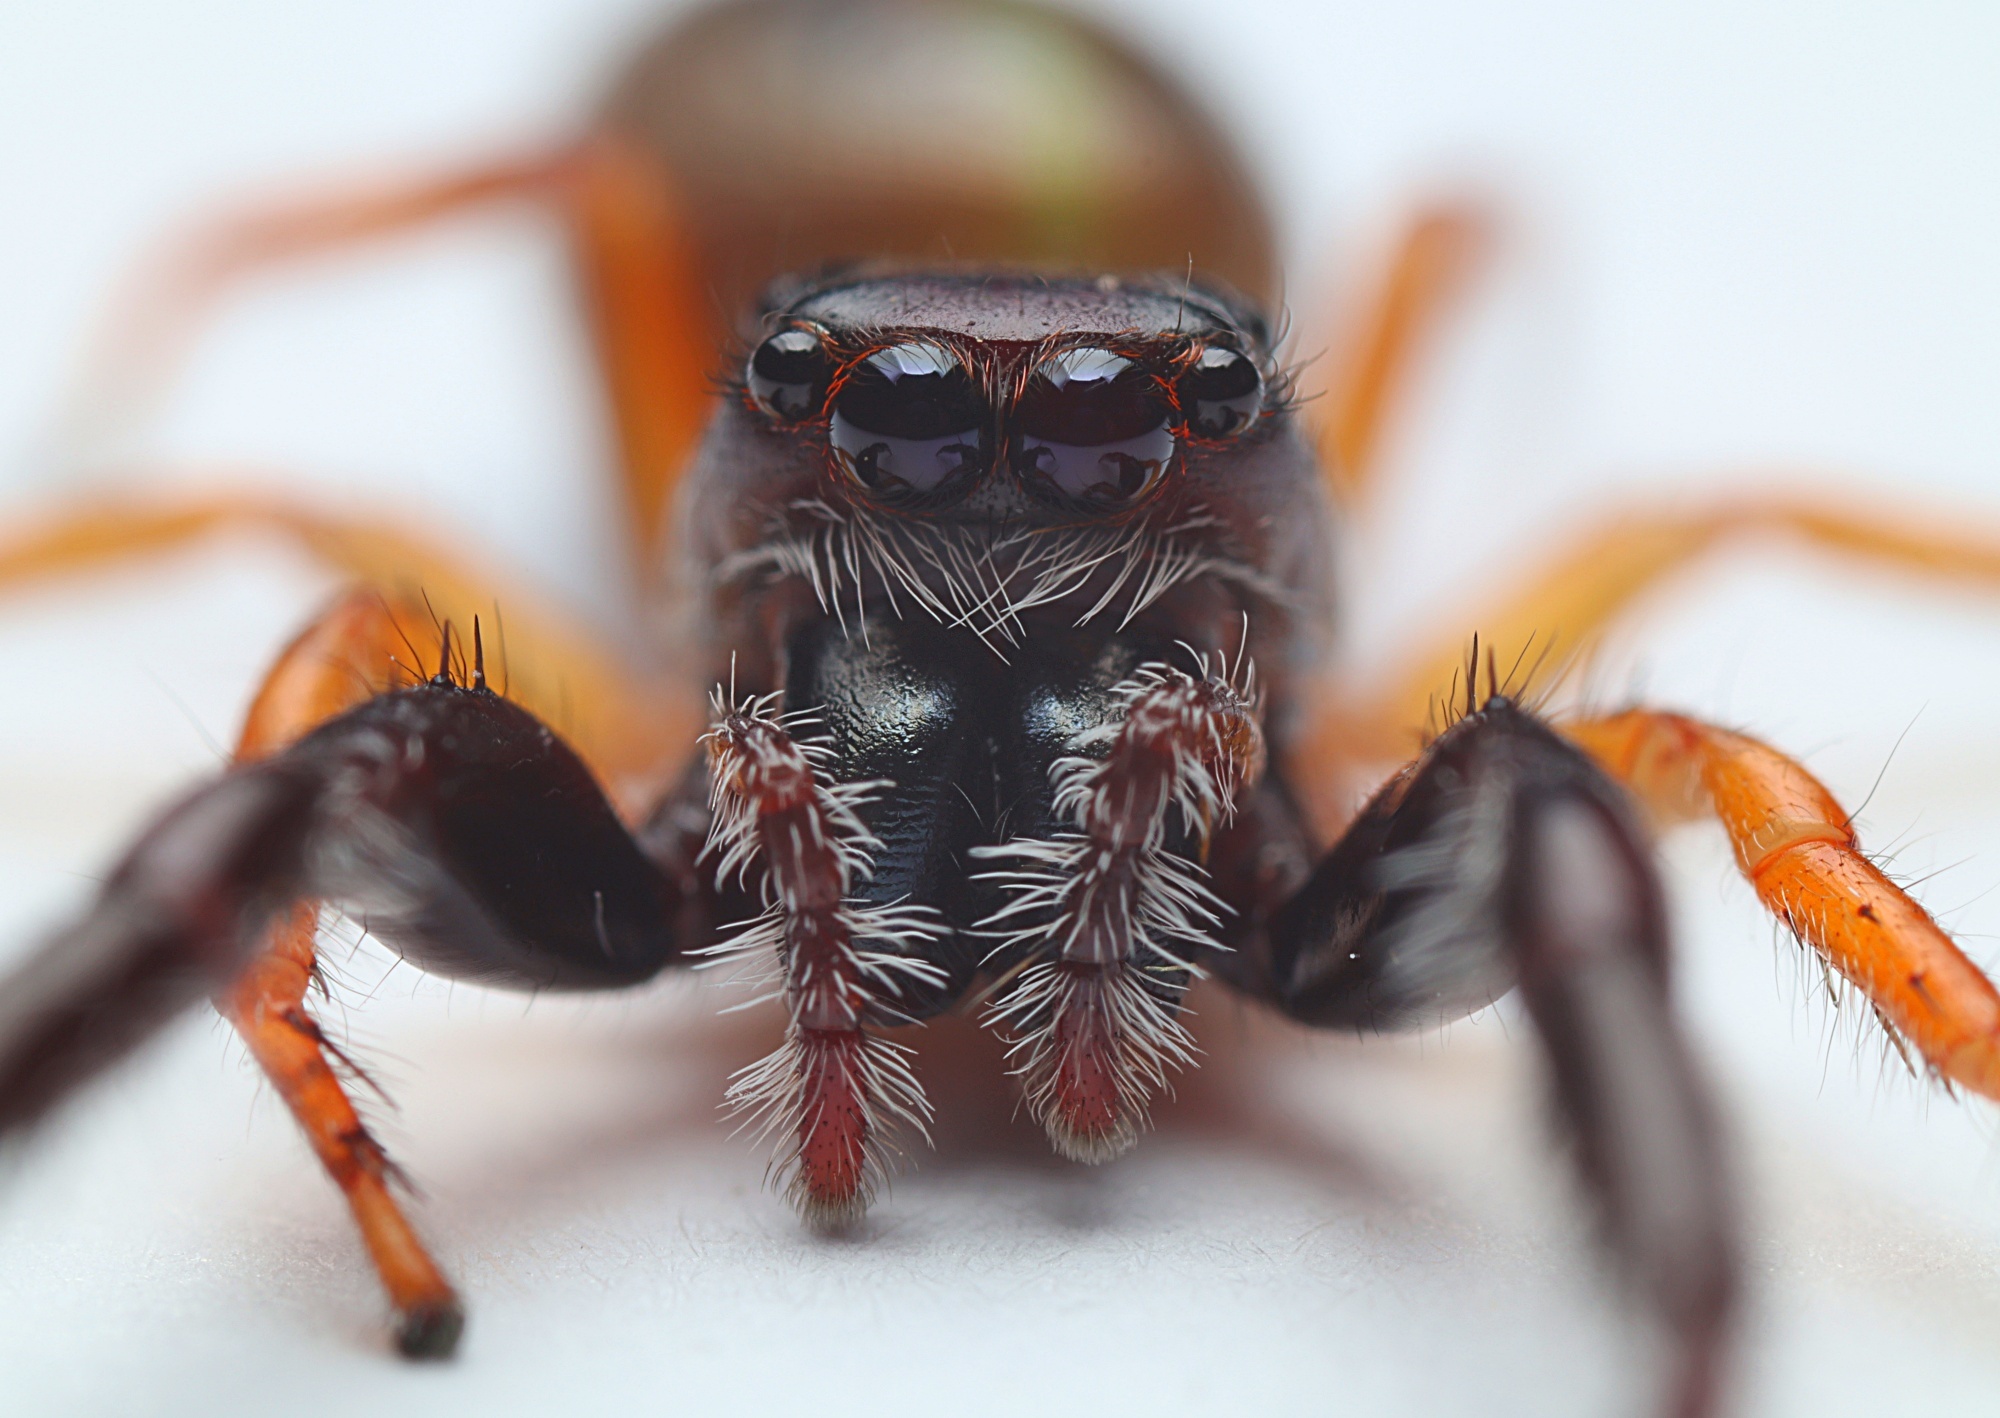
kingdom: Animalia
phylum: Arthropoda
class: Arachnida
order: Araneae
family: Salticidae
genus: Trite
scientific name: Trite planiceps
